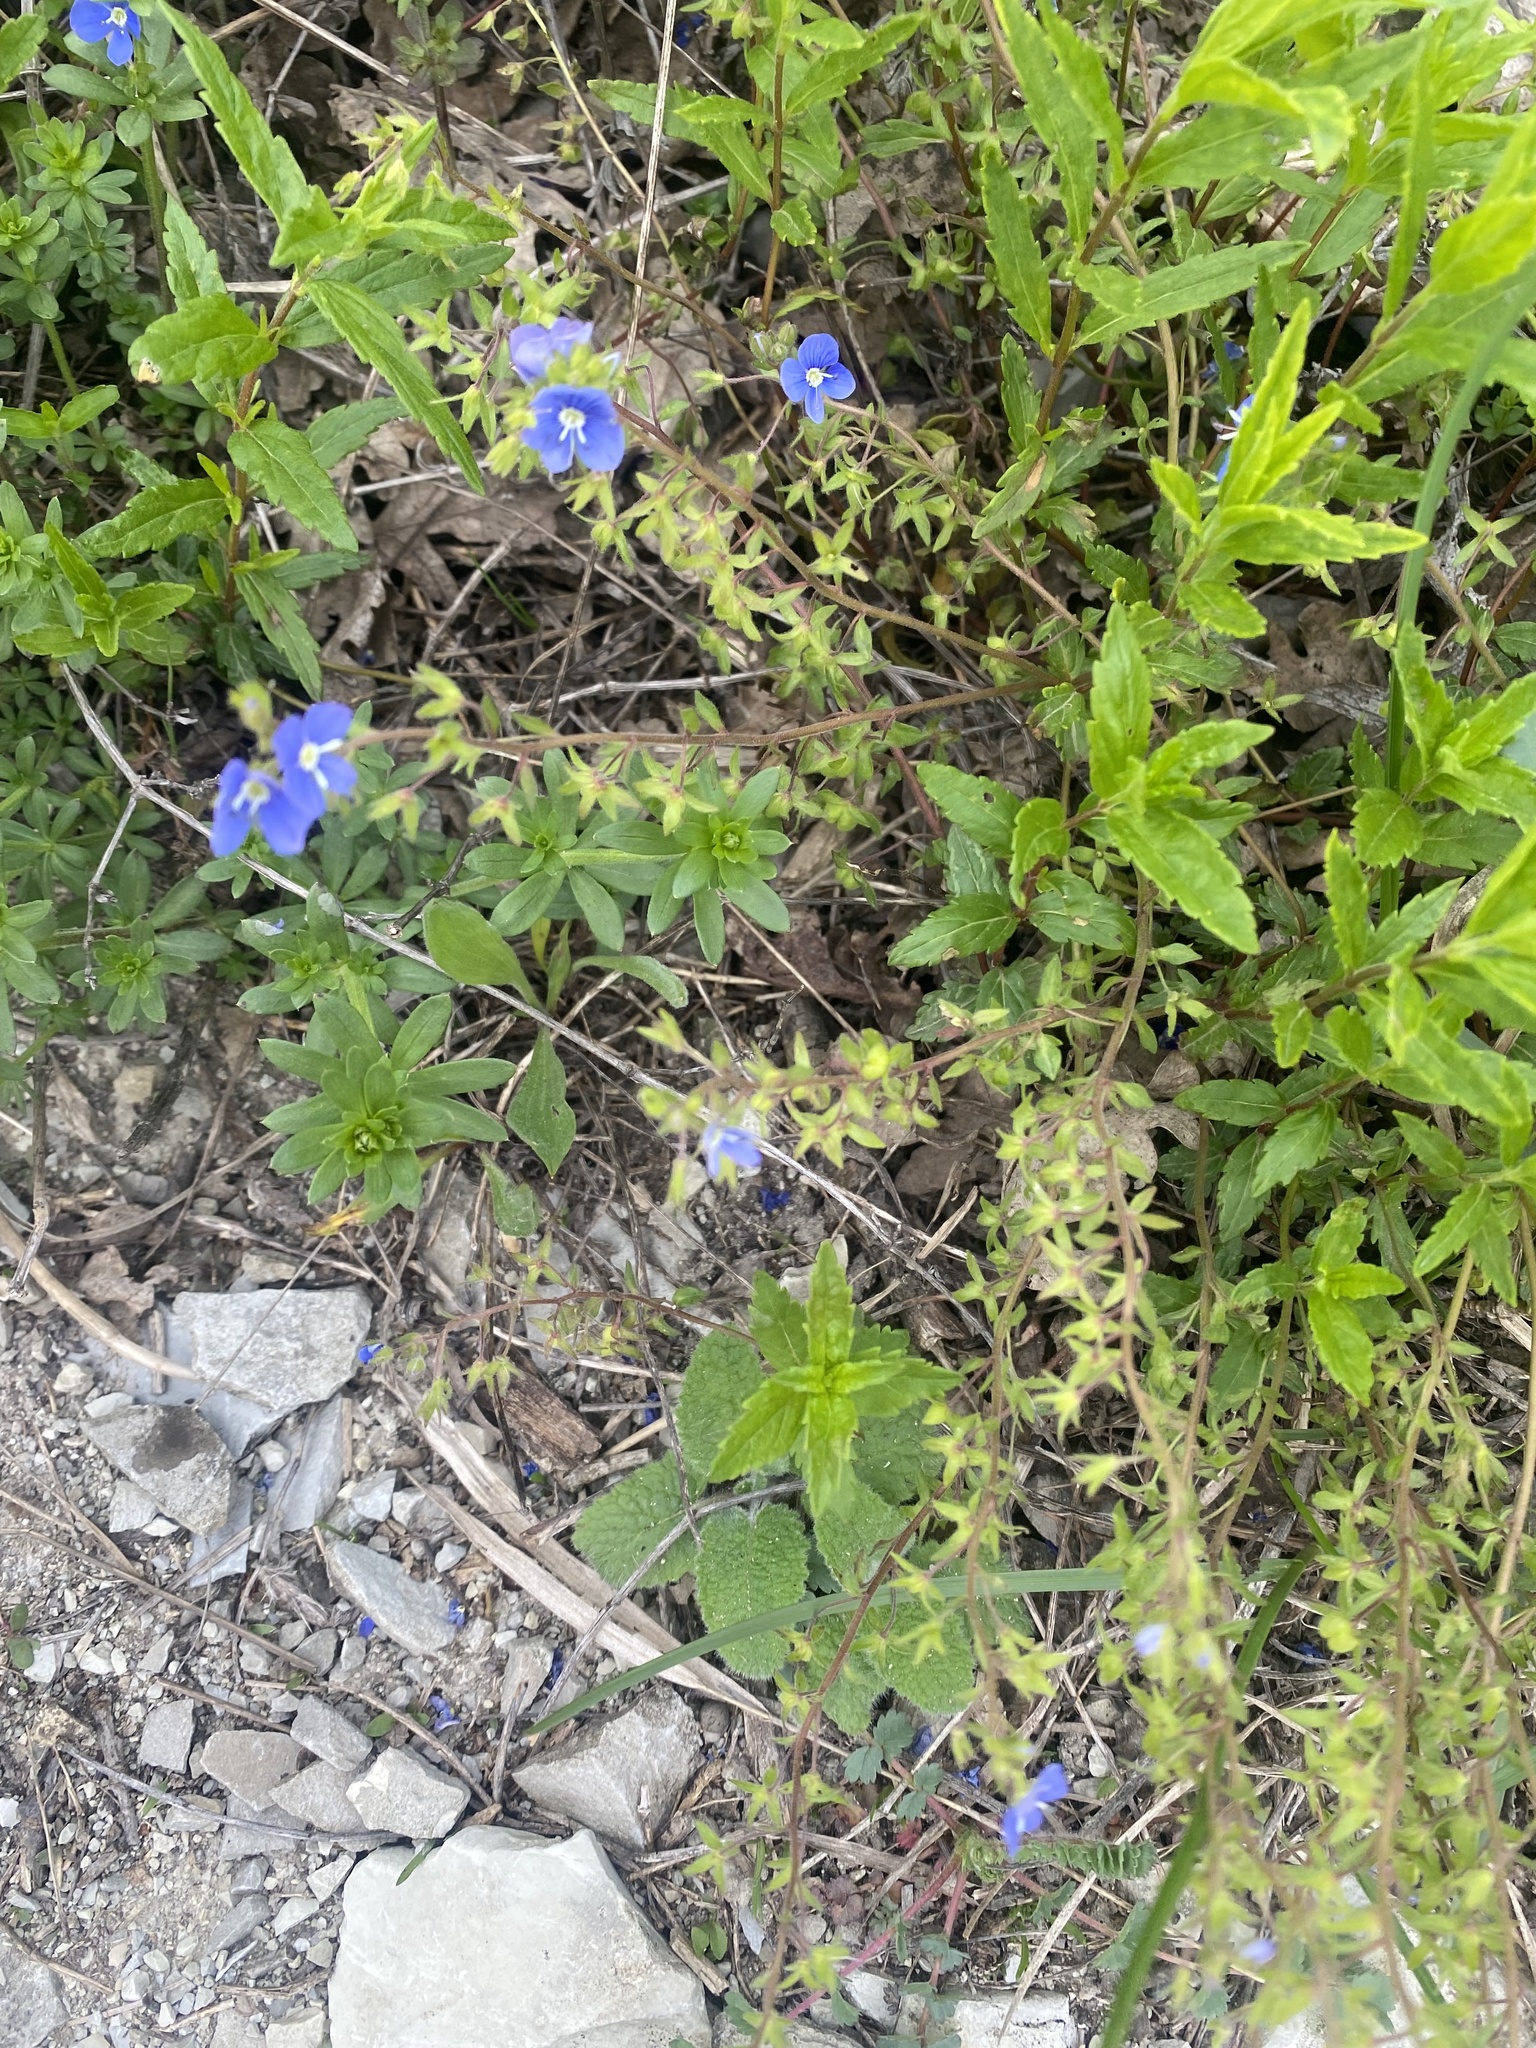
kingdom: Plantae
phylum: Tracheophyta
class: Magnoliopsida
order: Lamiales
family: Plantaginaceae
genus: Veronica
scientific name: Veronica
